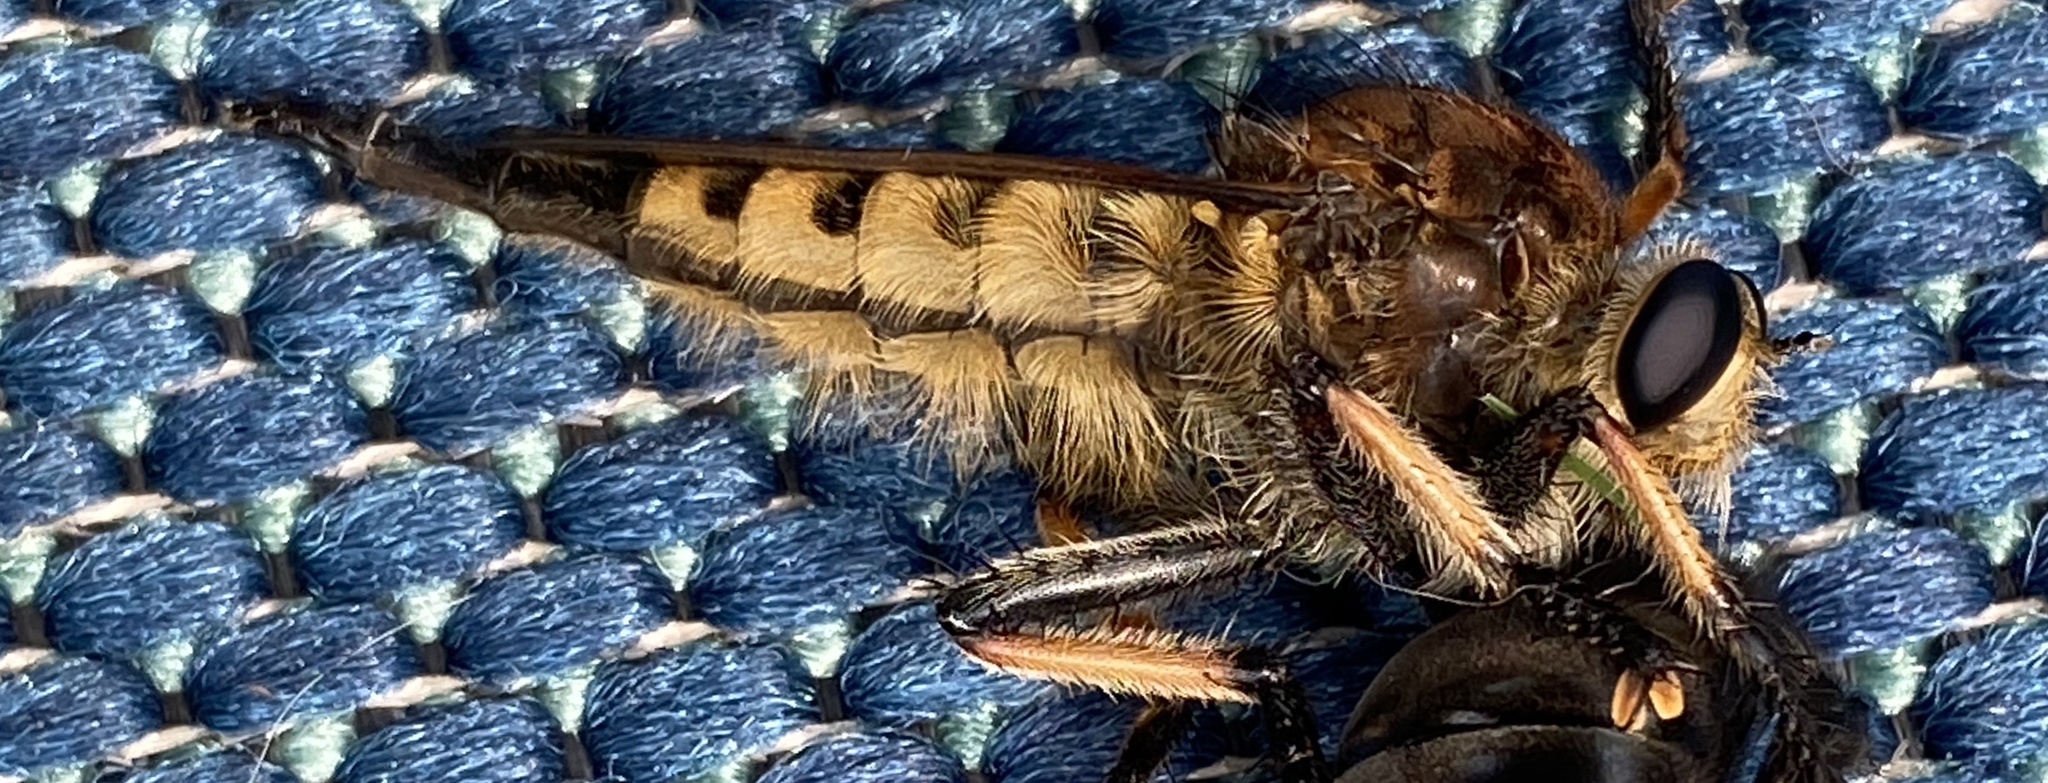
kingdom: Animalia
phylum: Arthropoda
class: Insecta
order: Diptera
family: Asilidae
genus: Promachus
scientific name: Promachus rufipes
